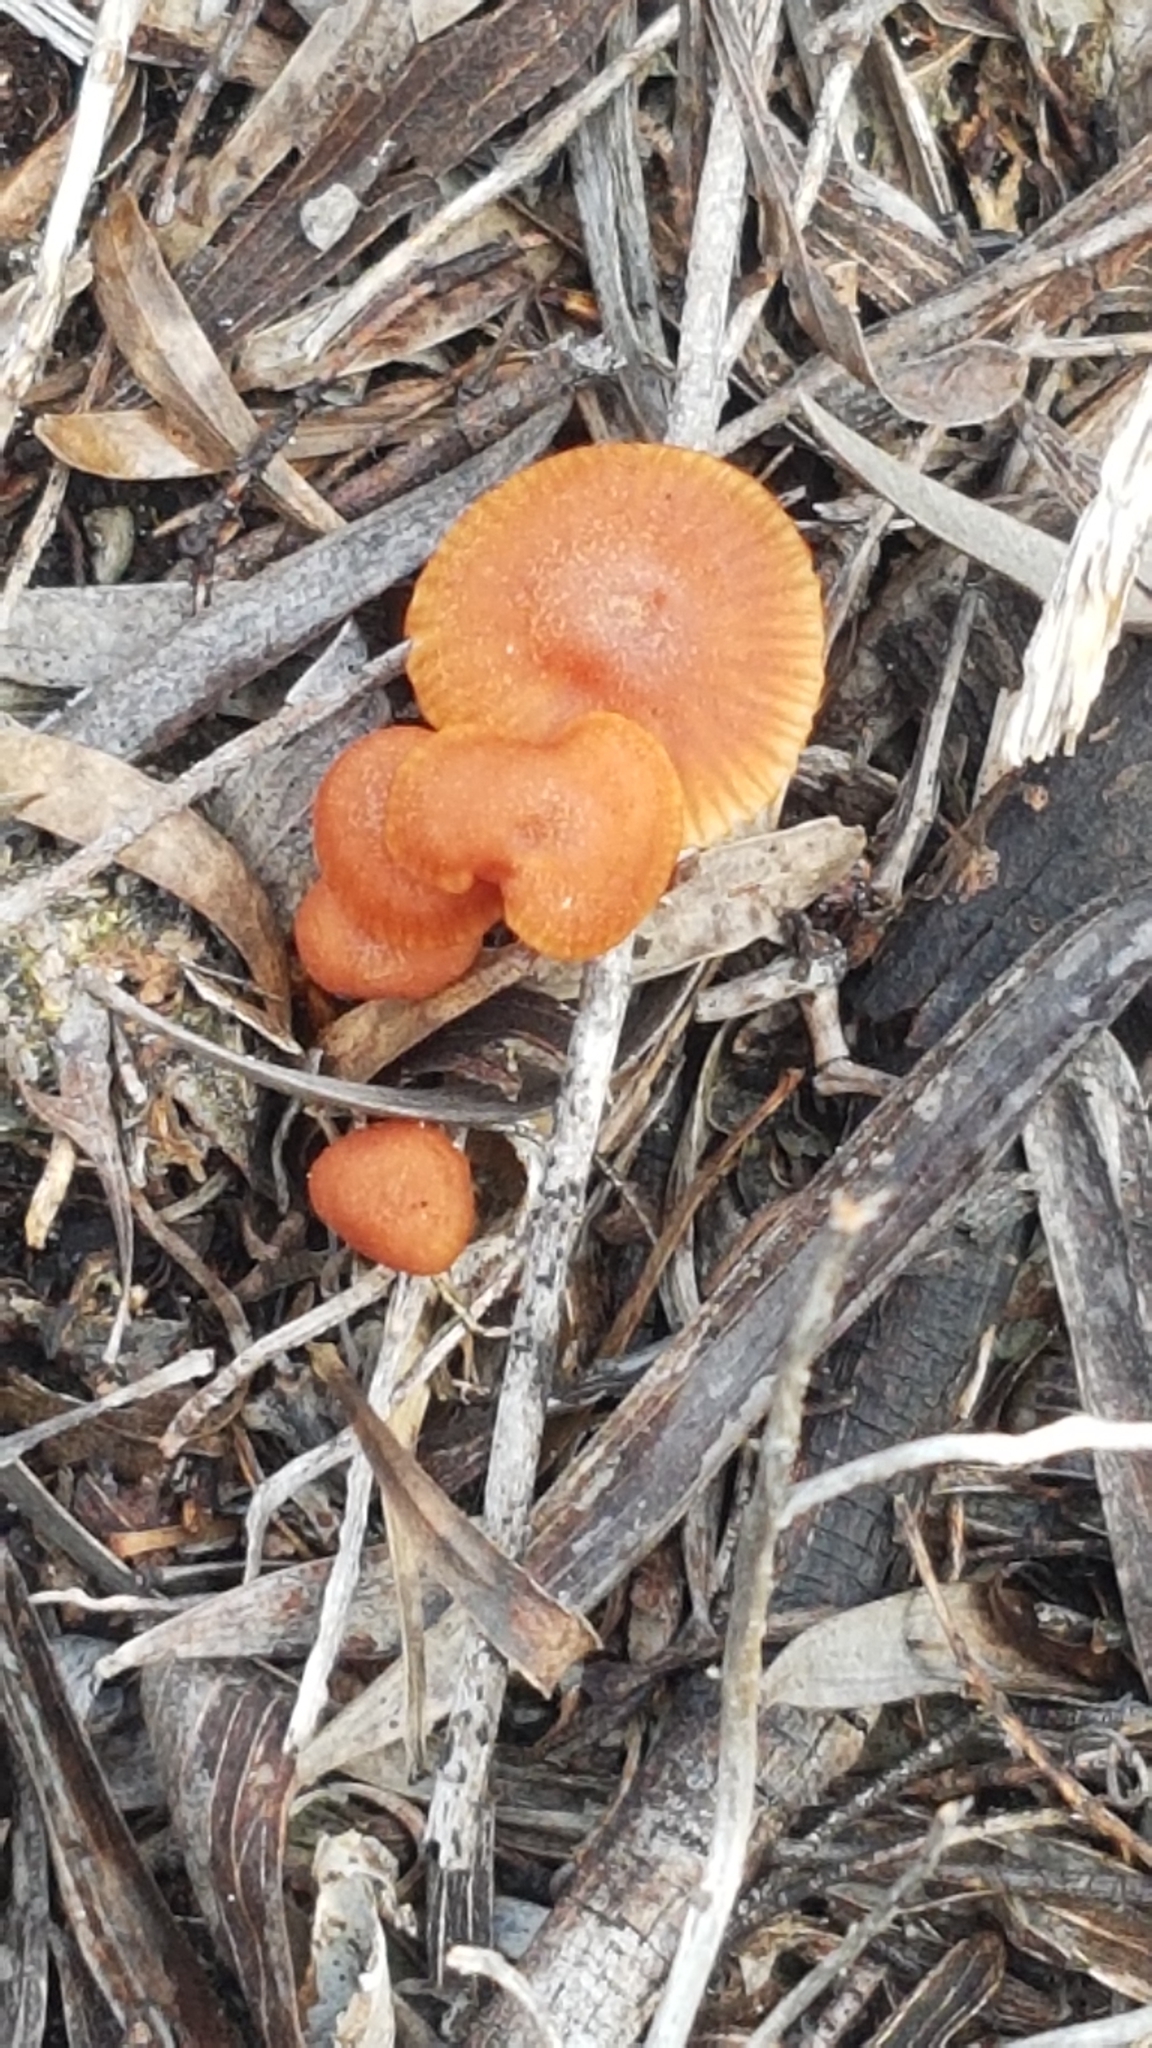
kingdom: Fungi
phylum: Basidiomycota
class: Agaricomycetes
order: Agaricales
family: Hydnangiaceae
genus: Laccaria
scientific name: Laccaria laccata
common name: Deceiver
